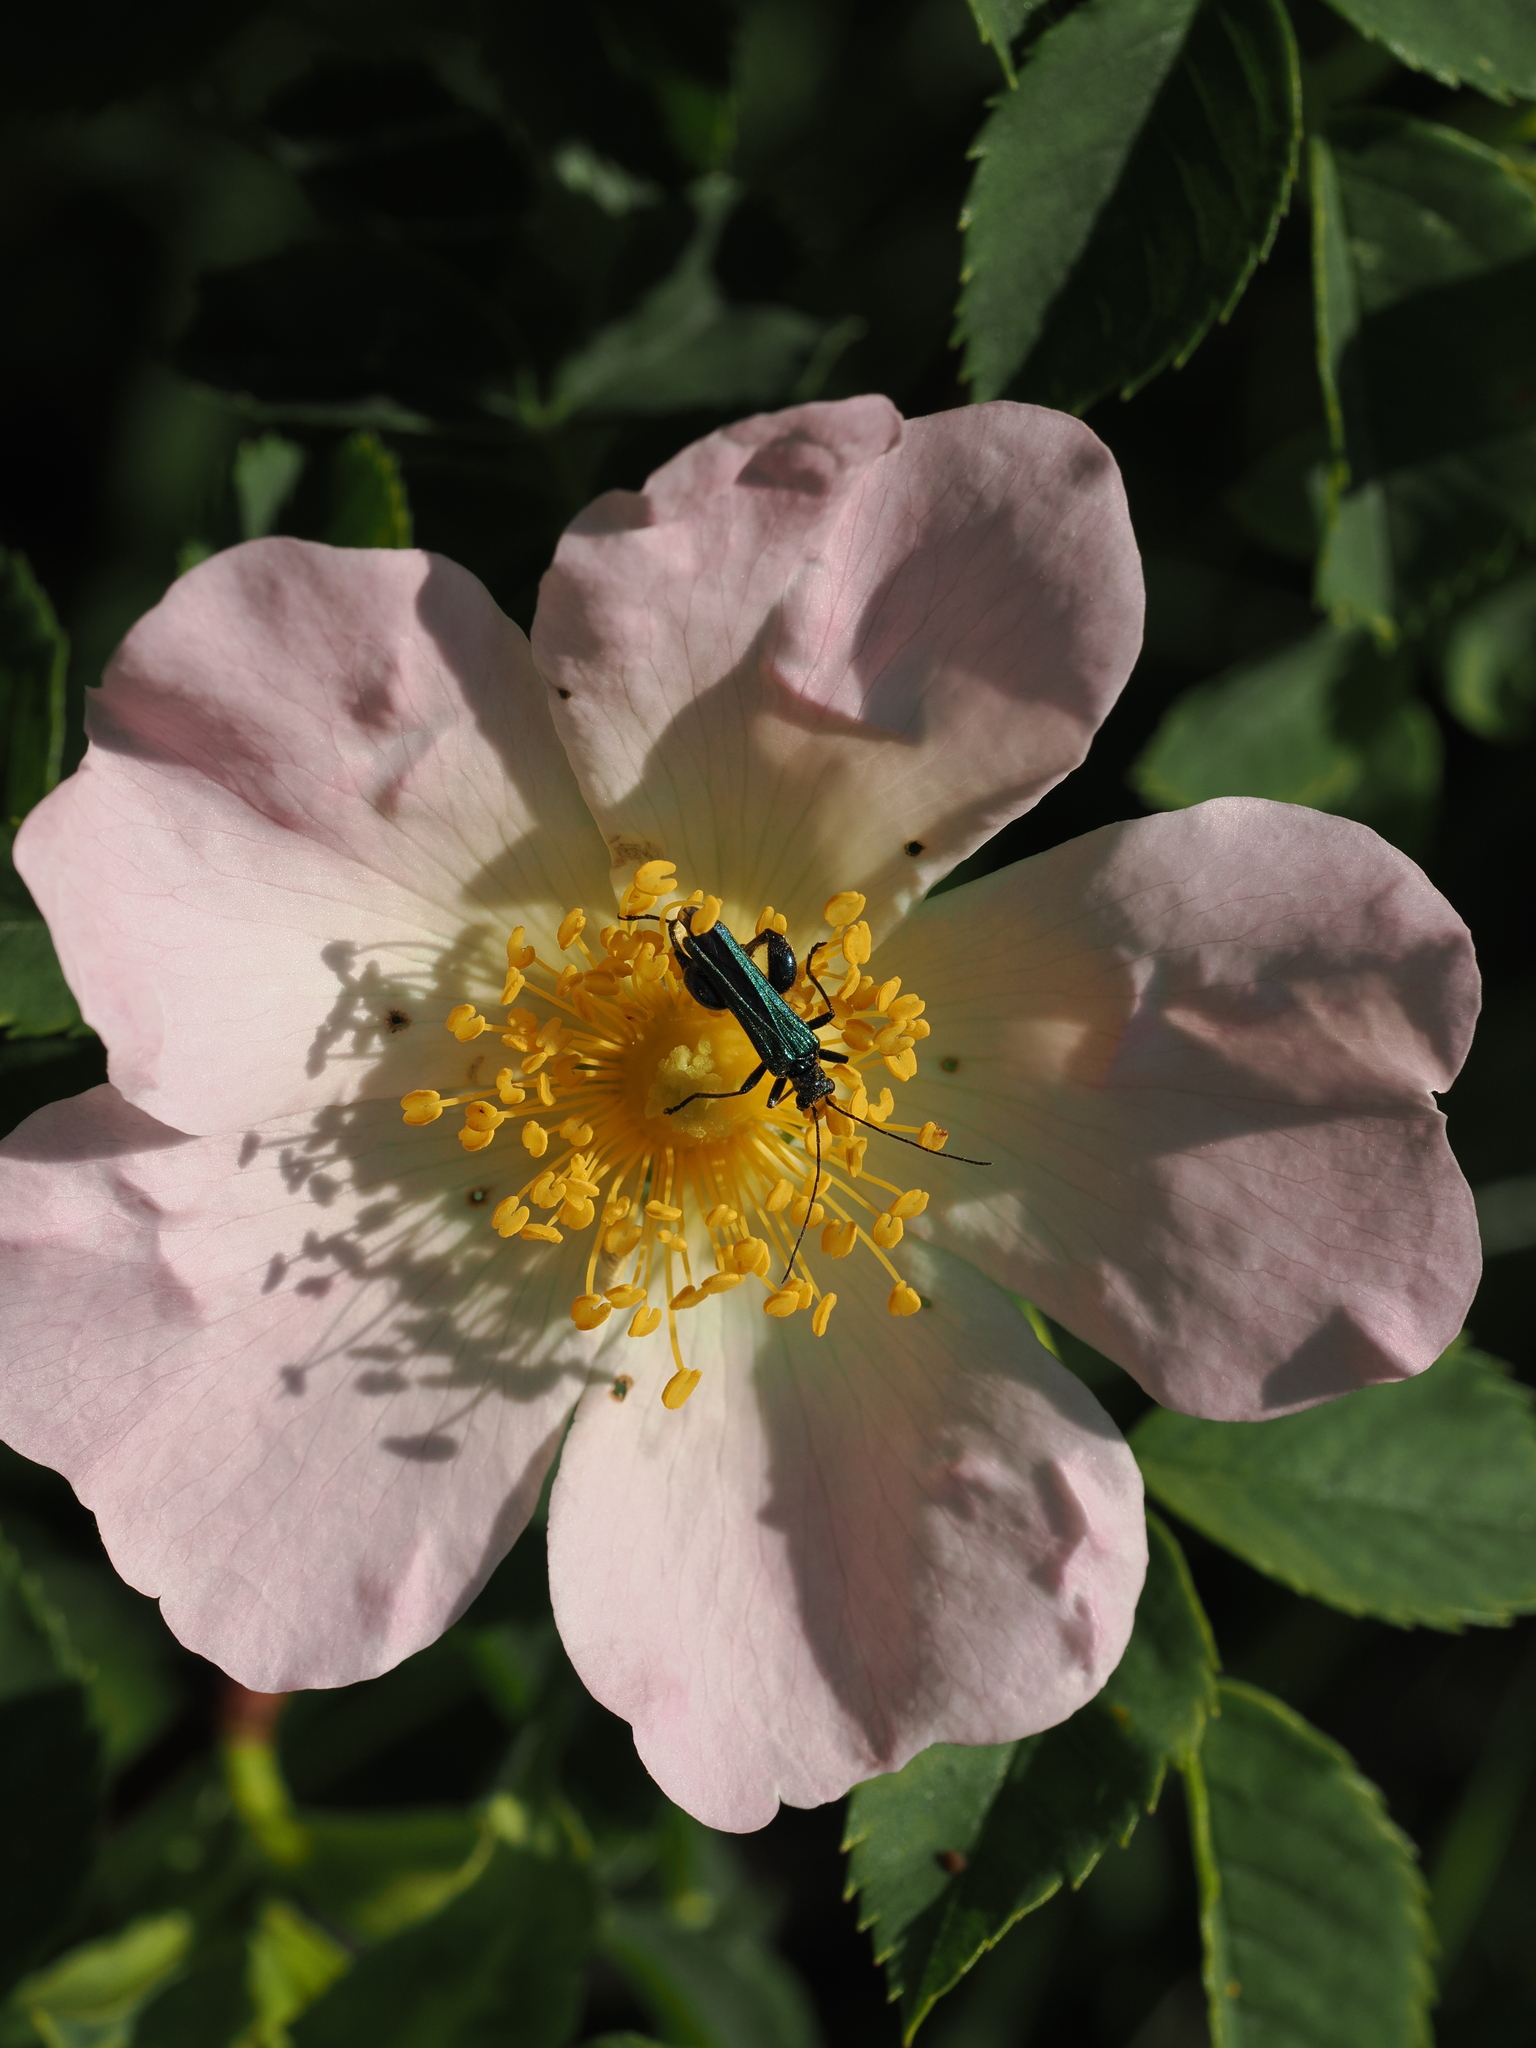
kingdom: Animalia
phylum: Arthropoda
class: Insecta
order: Coleoptera
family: Oedemeridae
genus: Oedemera
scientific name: Oedemera nobilis
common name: Swollen-thighed beetle
